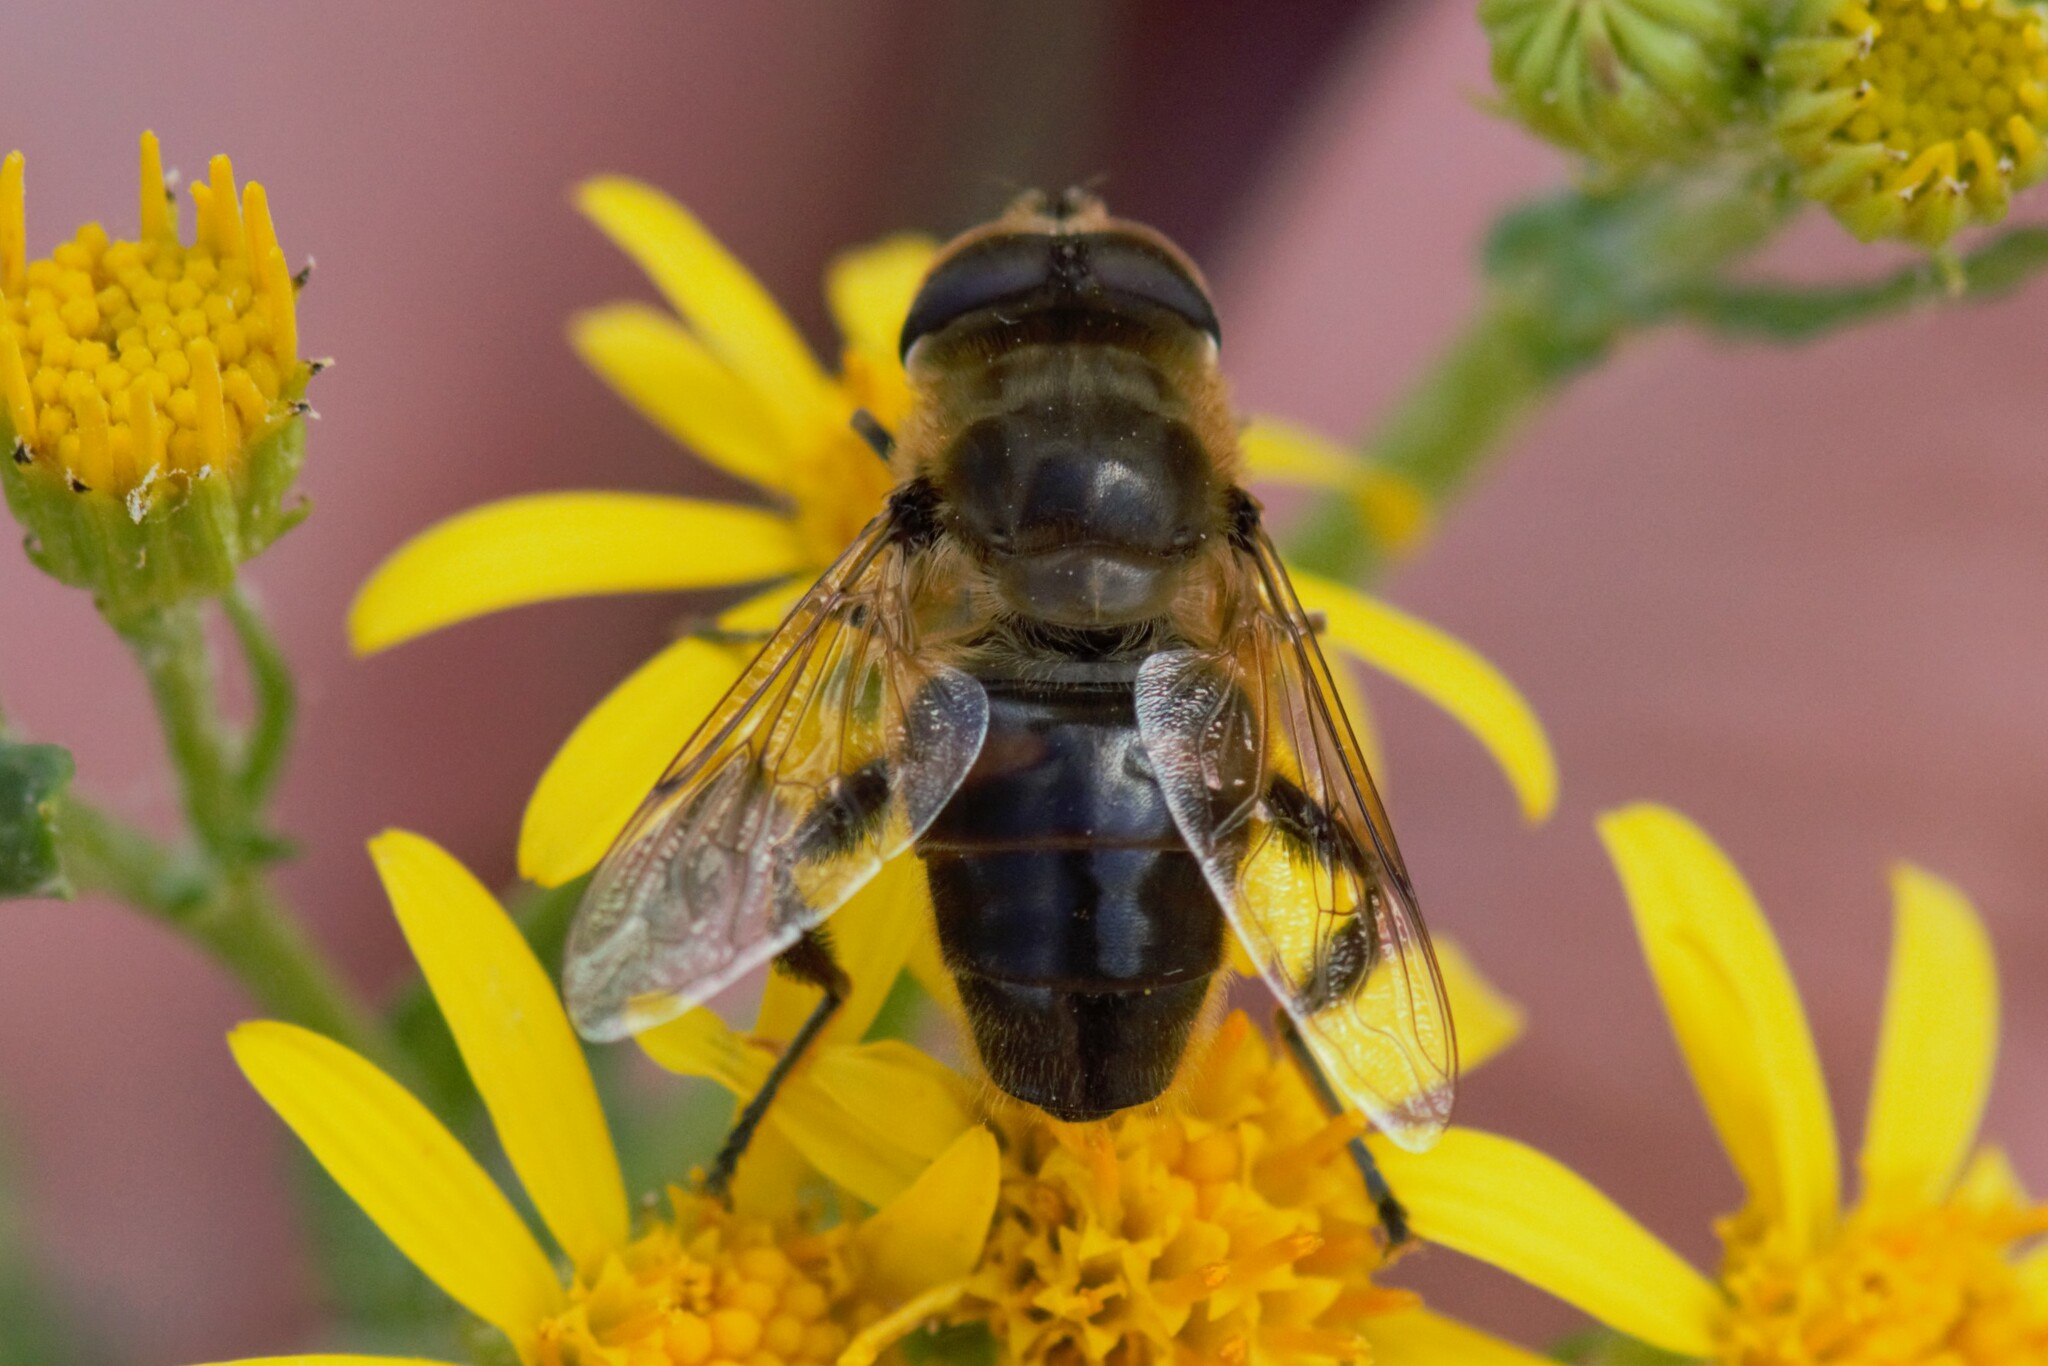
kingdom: Animalia
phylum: Arthropoda
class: Insecta
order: Diptera
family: Syrphidae
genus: Eristalis
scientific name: Eristalis tenax
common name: Drone fly
